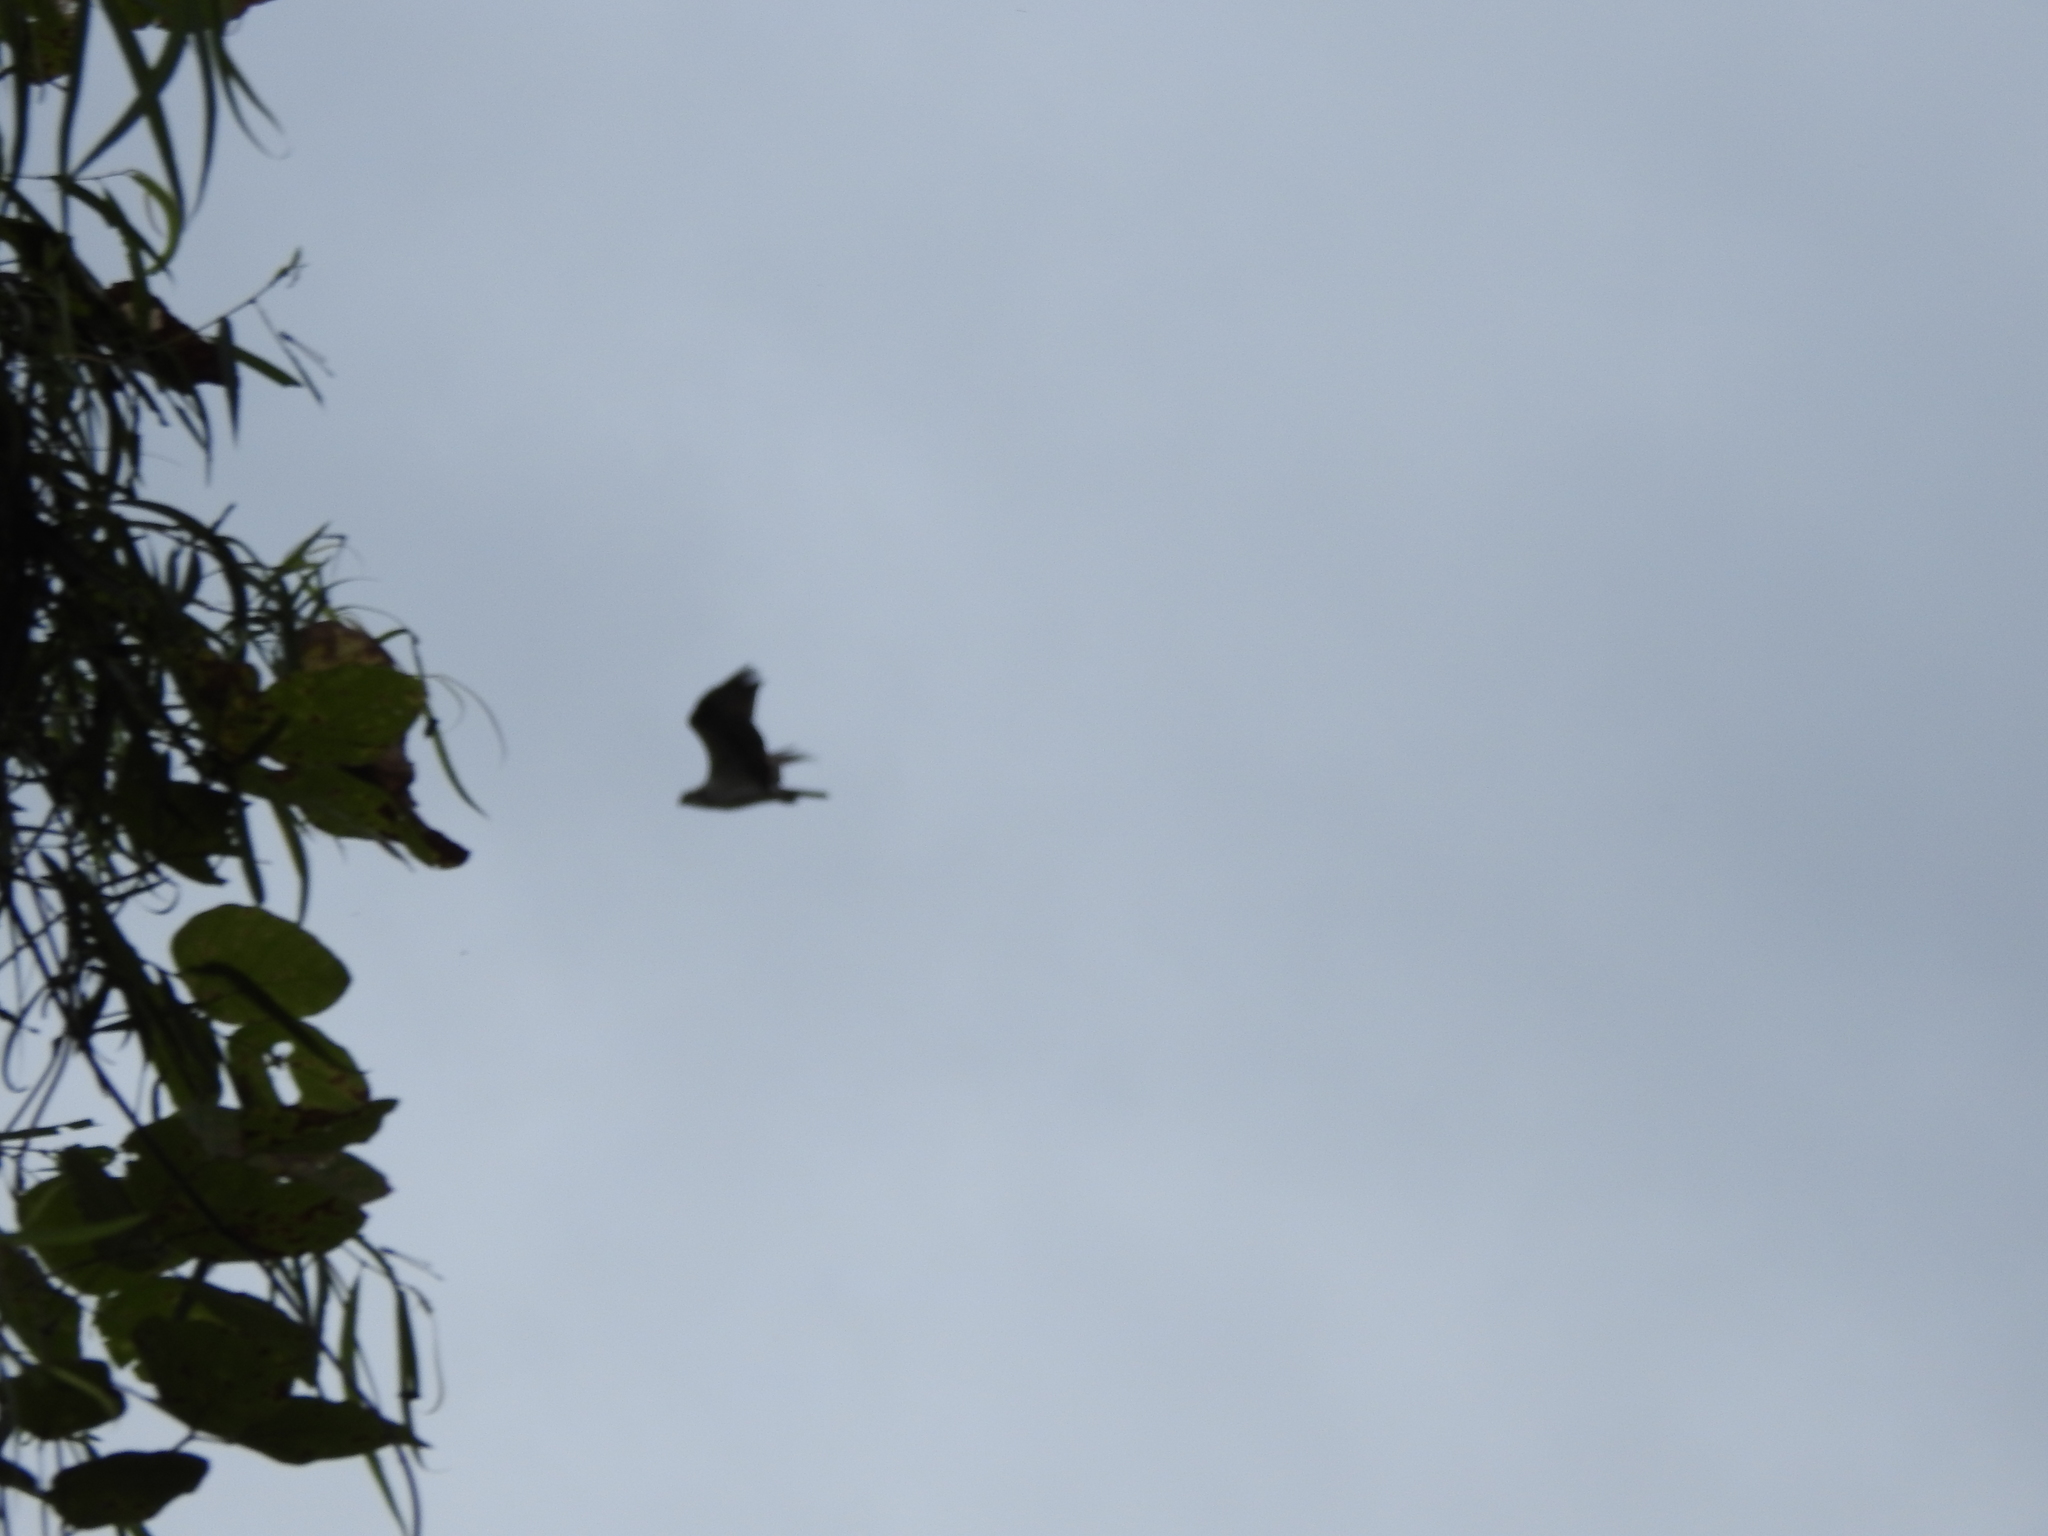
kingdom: Animalia
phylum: Chordata
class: Aves
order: Accipitriformes
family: Pandionidae
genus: Pandion
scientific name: Pandion haliaetus
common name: Osprey
